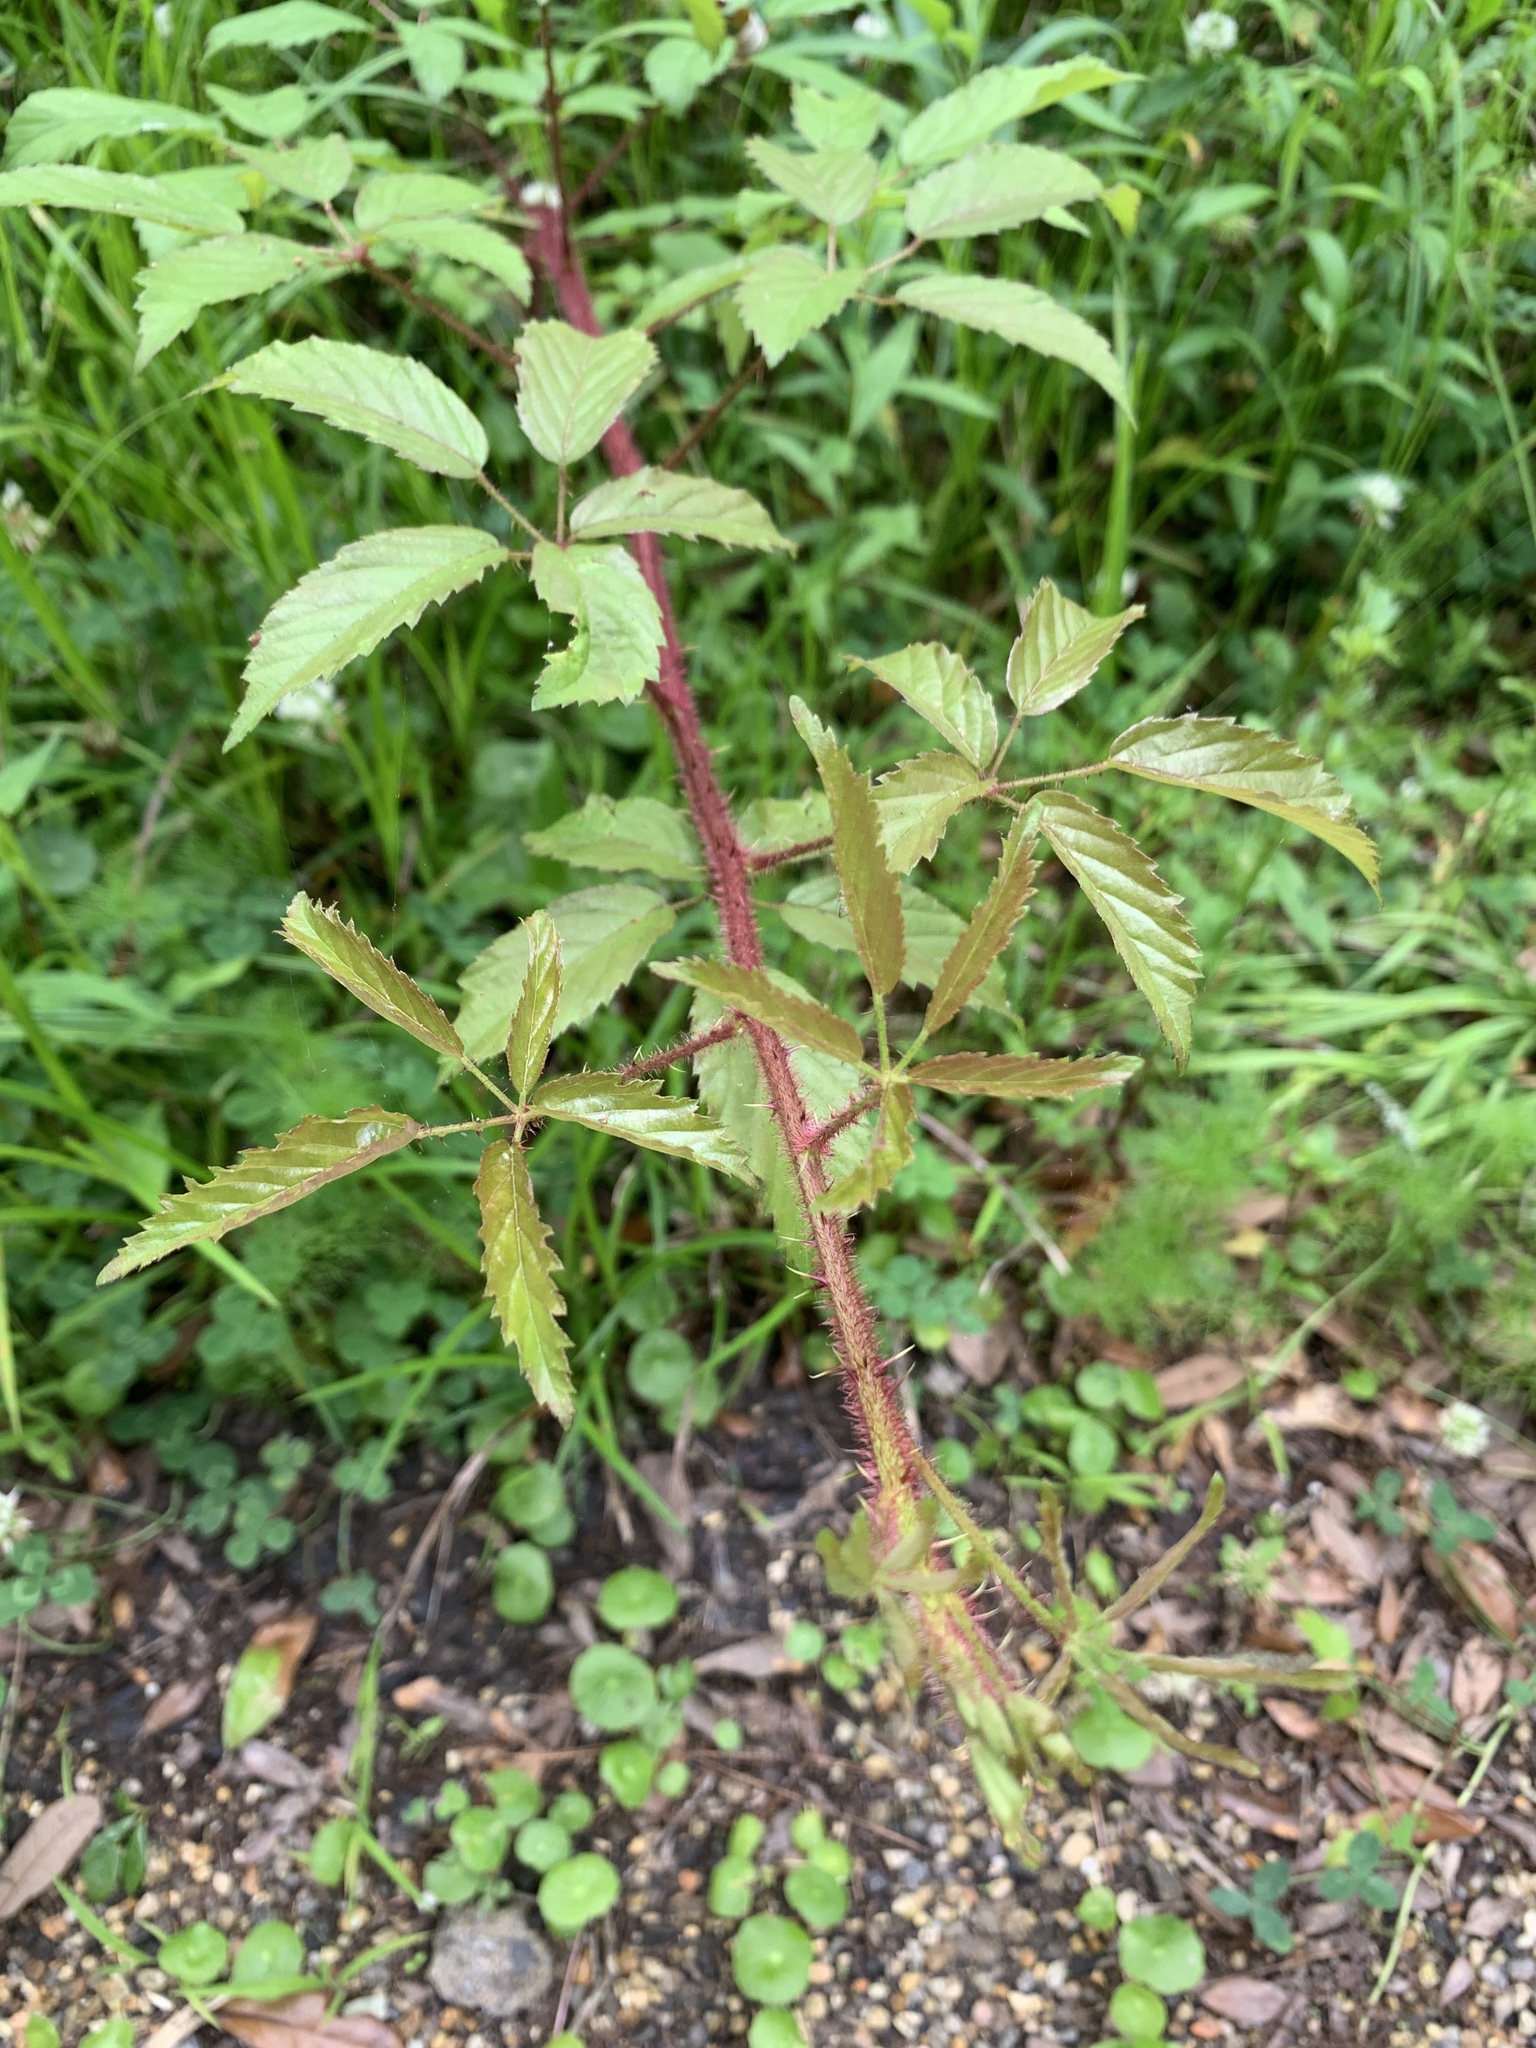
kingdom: Plantae
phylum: Tracheophyta
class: Magnoliopsida
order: Rosales
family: Rosaceae
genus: Rubus
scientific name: Rubus trivialis
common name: Southern dewberry
